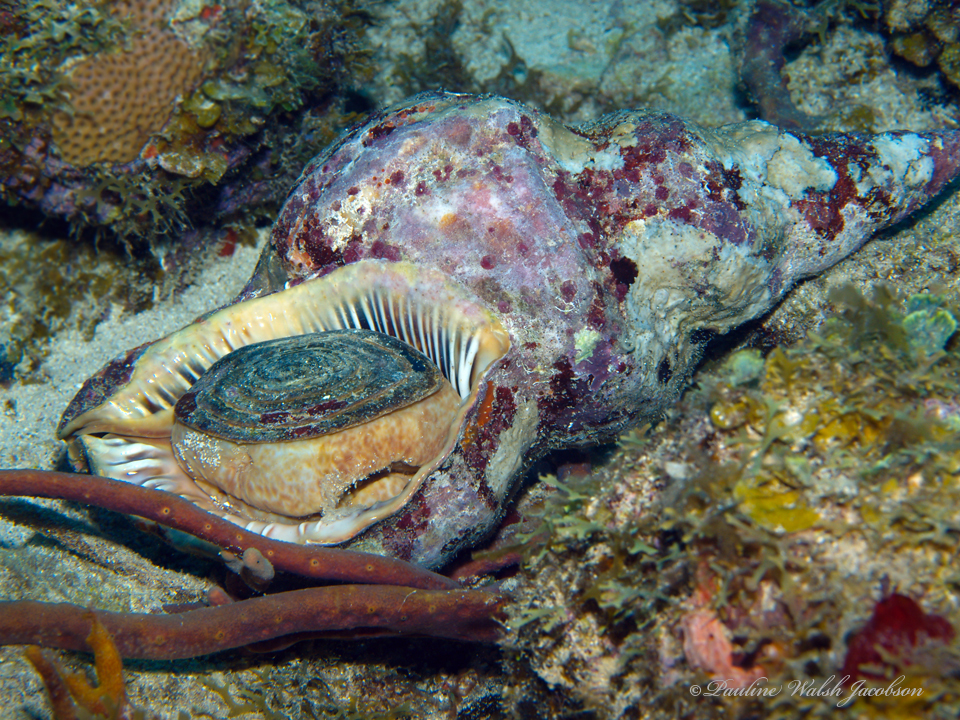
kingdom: Animalia
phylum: Mollusca
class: Gastropoda
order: Littorinimorpha
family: Charoniidae
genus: Charonia
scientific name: Charonia variegata
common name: Atlantic triton
